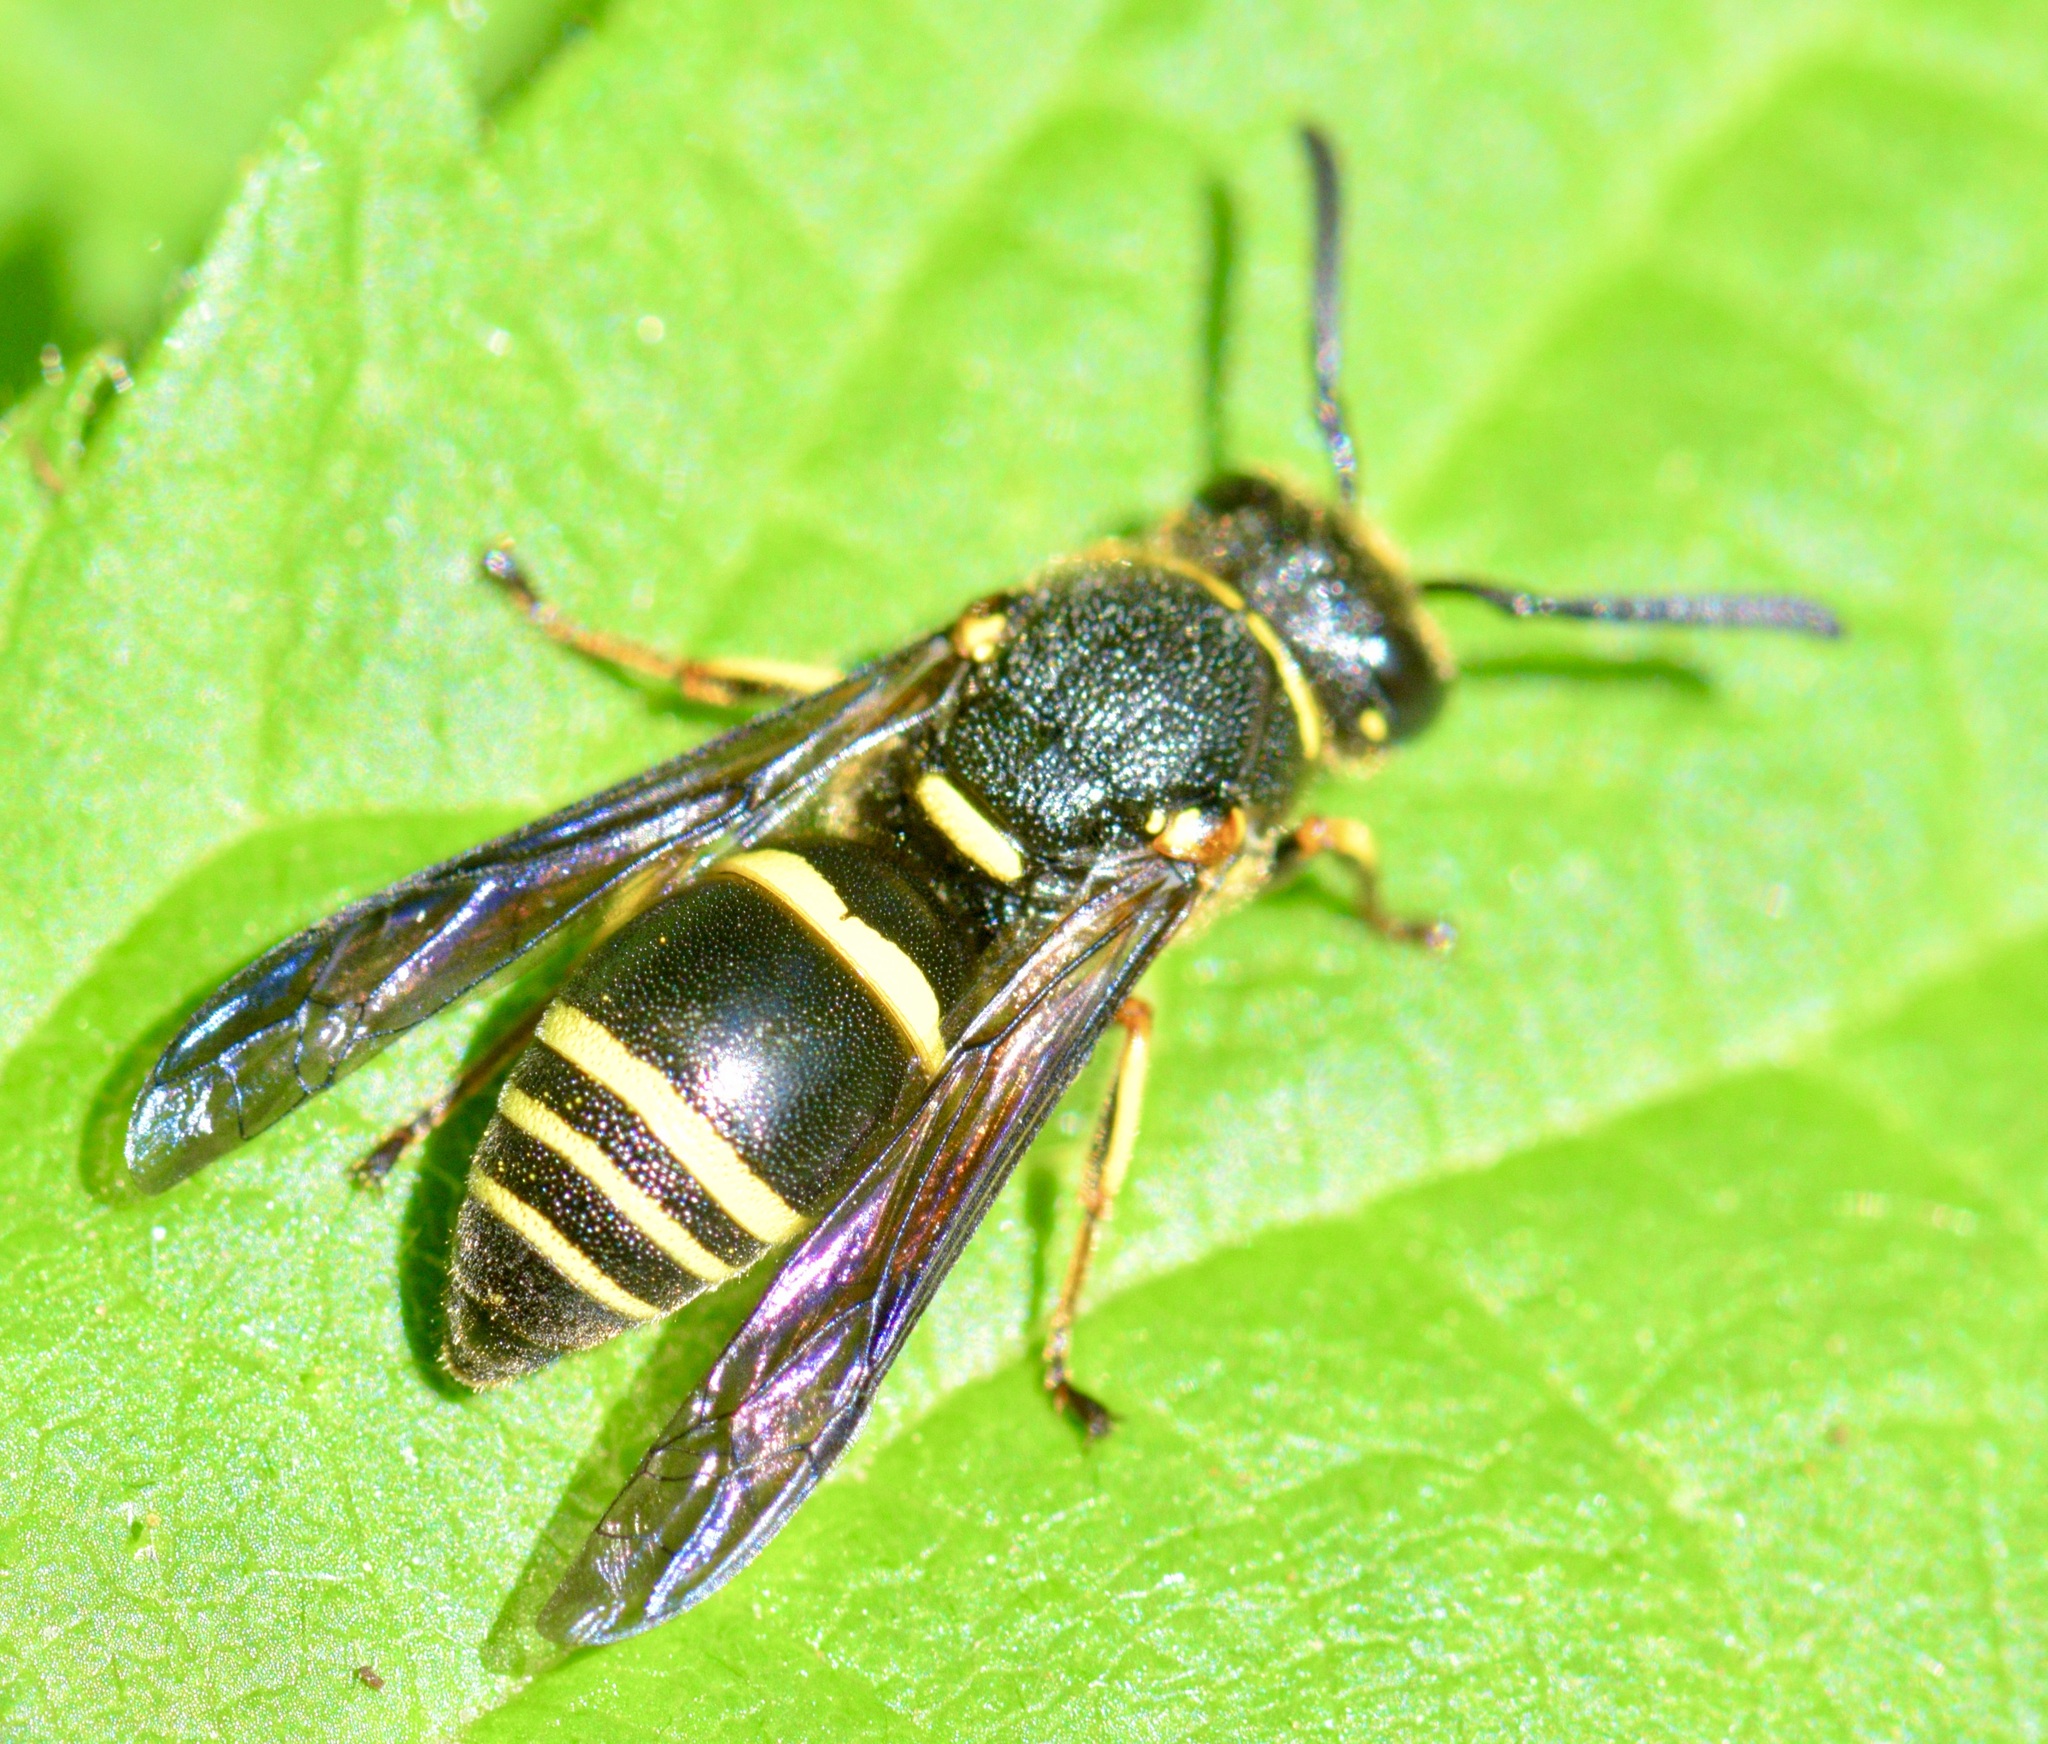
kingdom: Animalia
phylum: Arthropoda
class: Insecta
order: Hymenoptera
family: Eumenidae
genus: Euodynerus
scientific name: Euodynerus foraminatus
